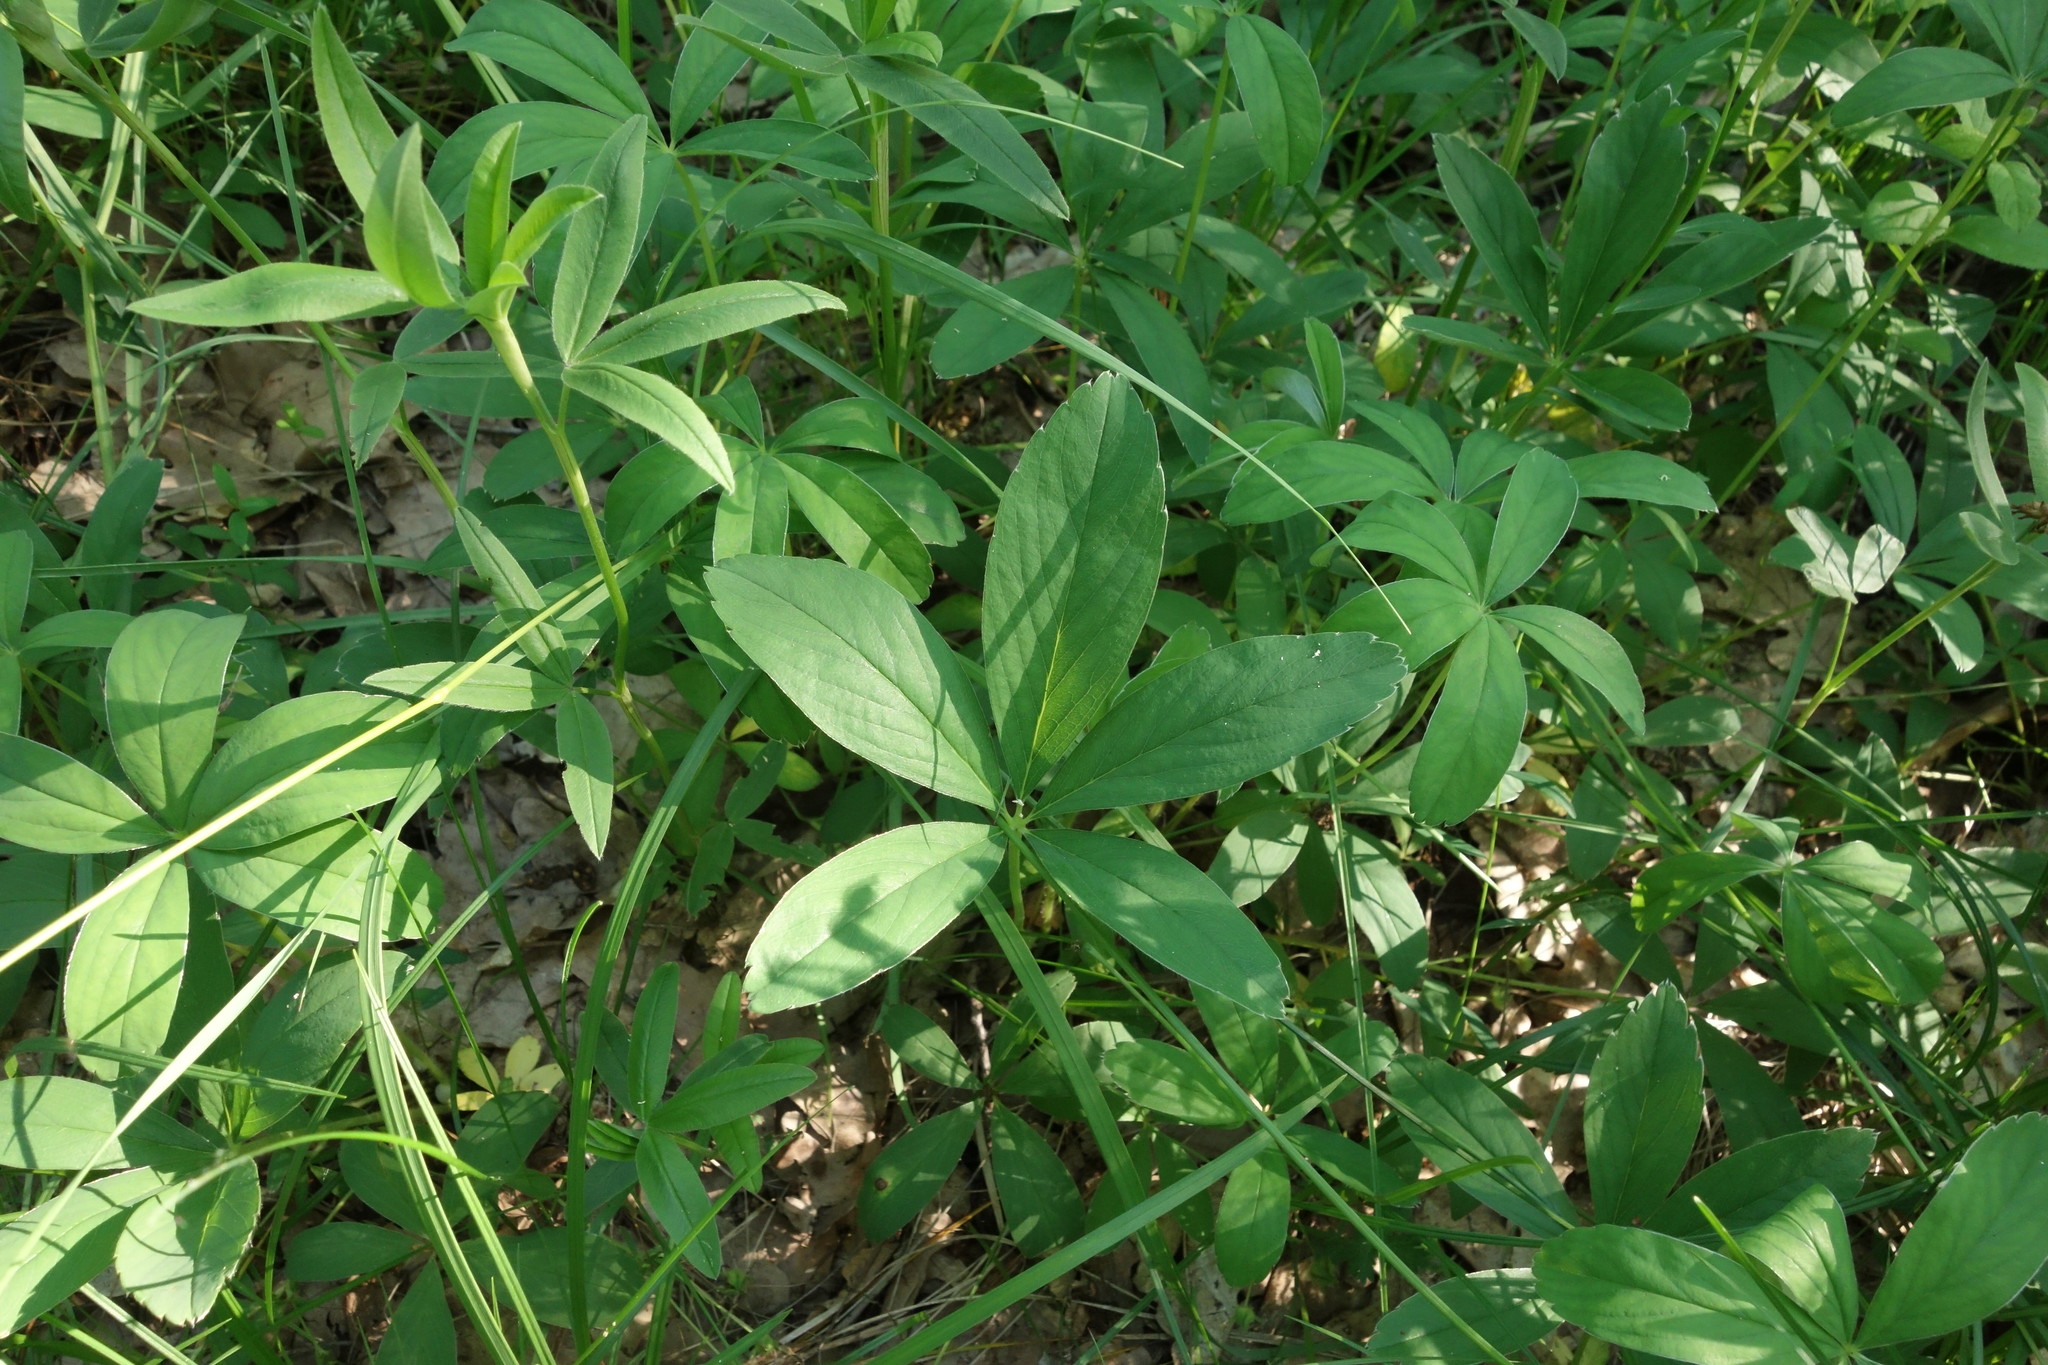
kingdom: Plantae
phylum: Tracheophyta
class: Magnoliopsida
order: Rosales
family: Rosaceae
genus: Potentilla
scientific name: Potentilla alba
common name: White cinquefoil
